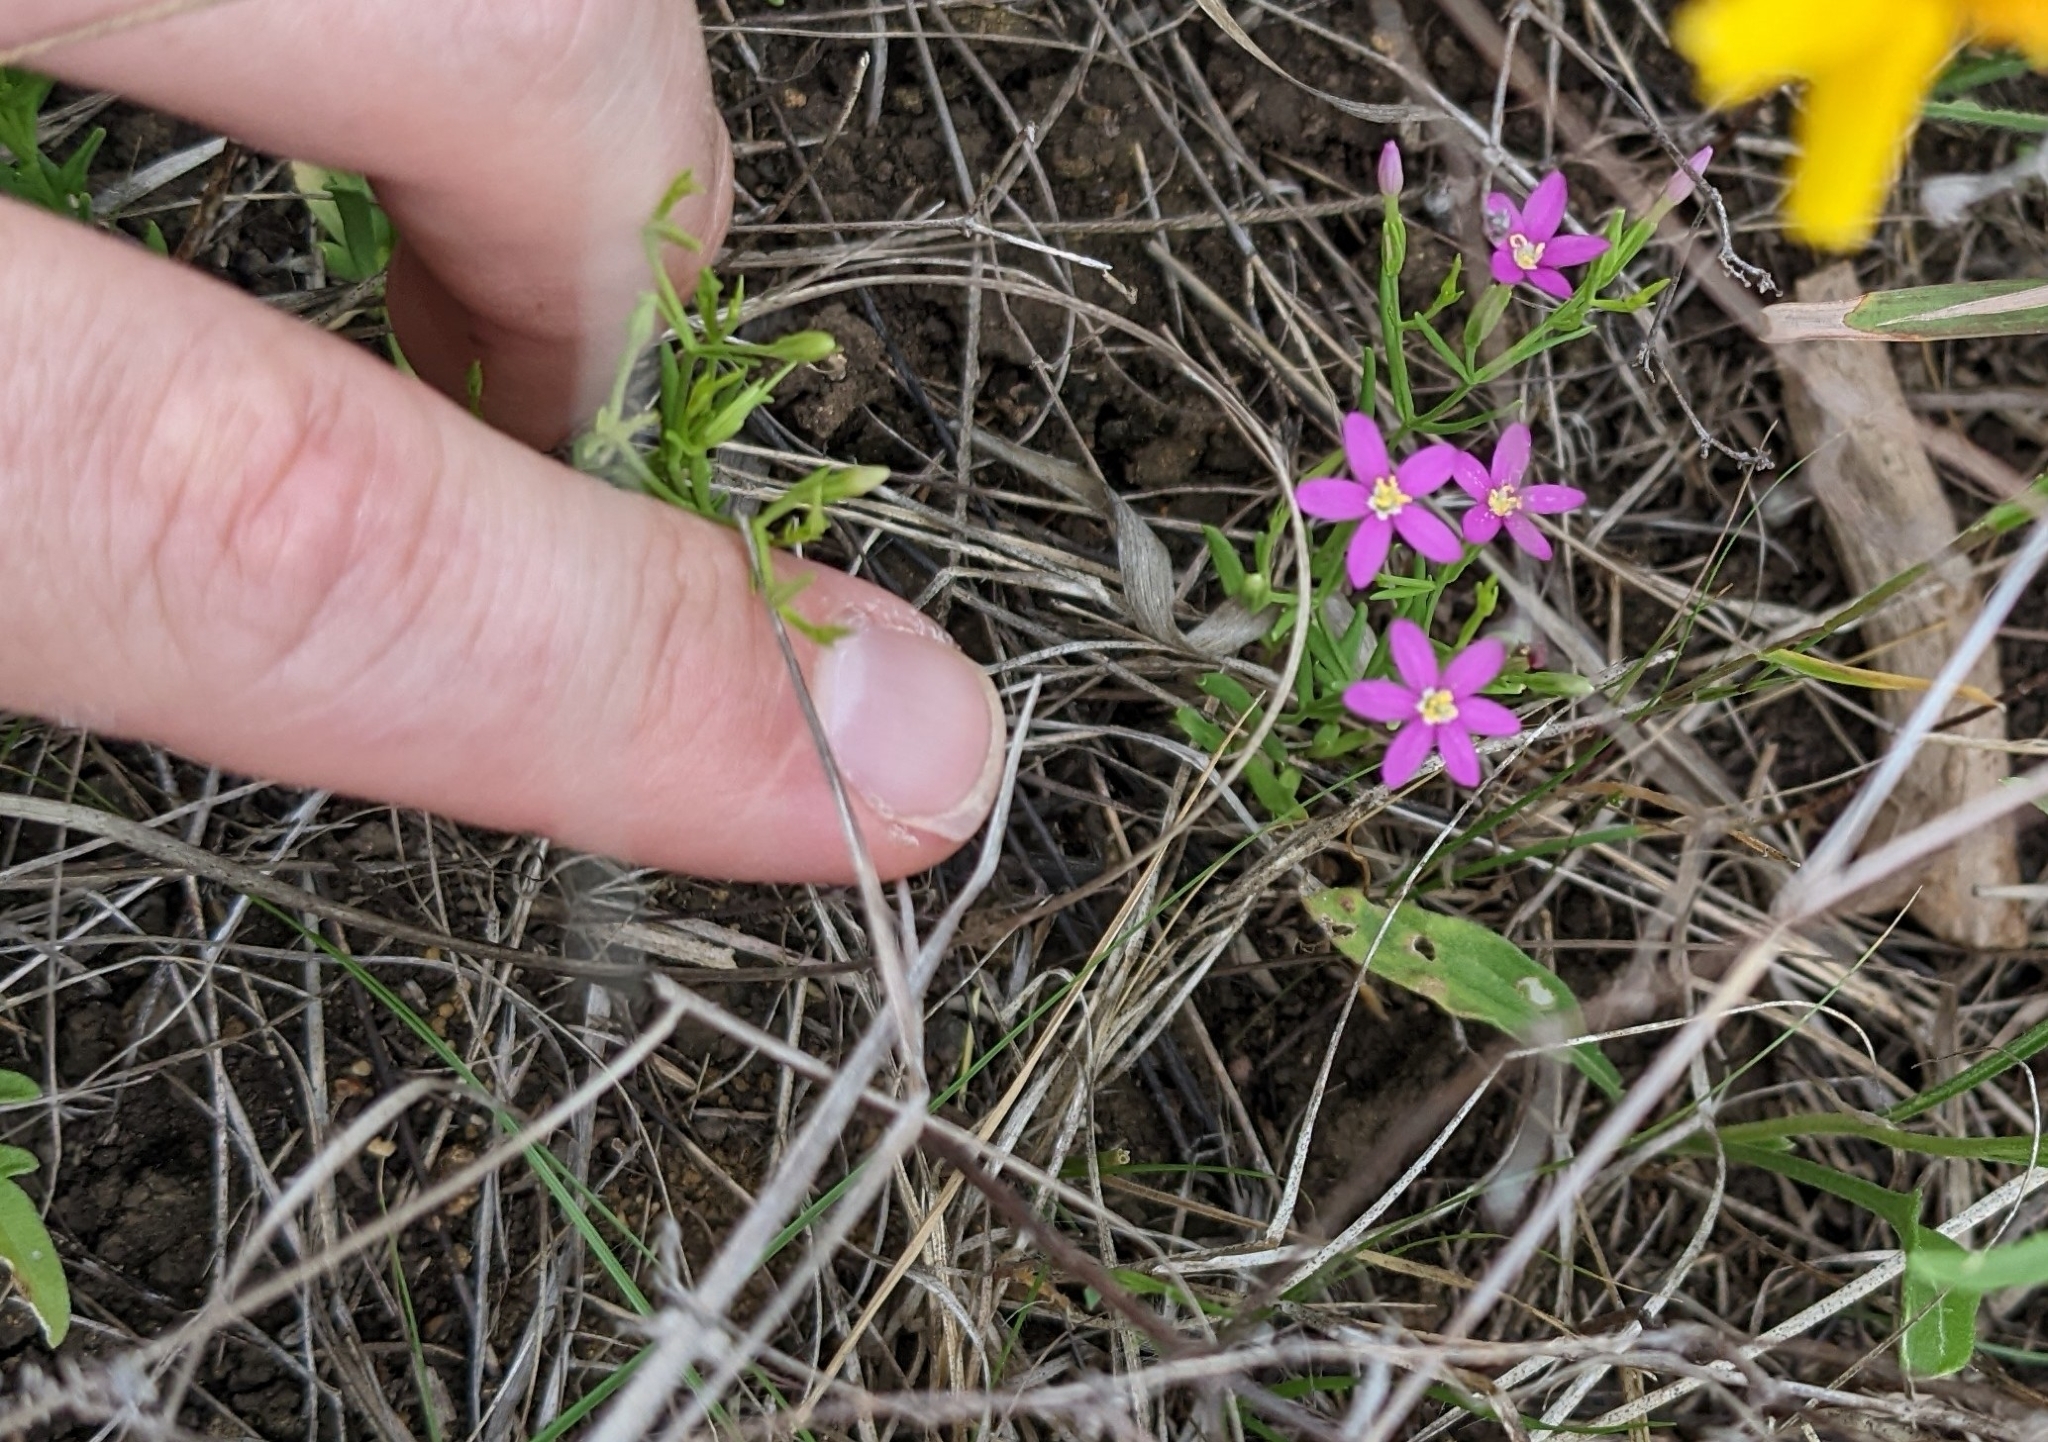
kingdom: Plantae
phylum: Tracheophyta
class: Magnoliopsida
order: Gentianales
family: Gentianaceae
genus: Zeltnera
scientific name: Zeltnera texensis
